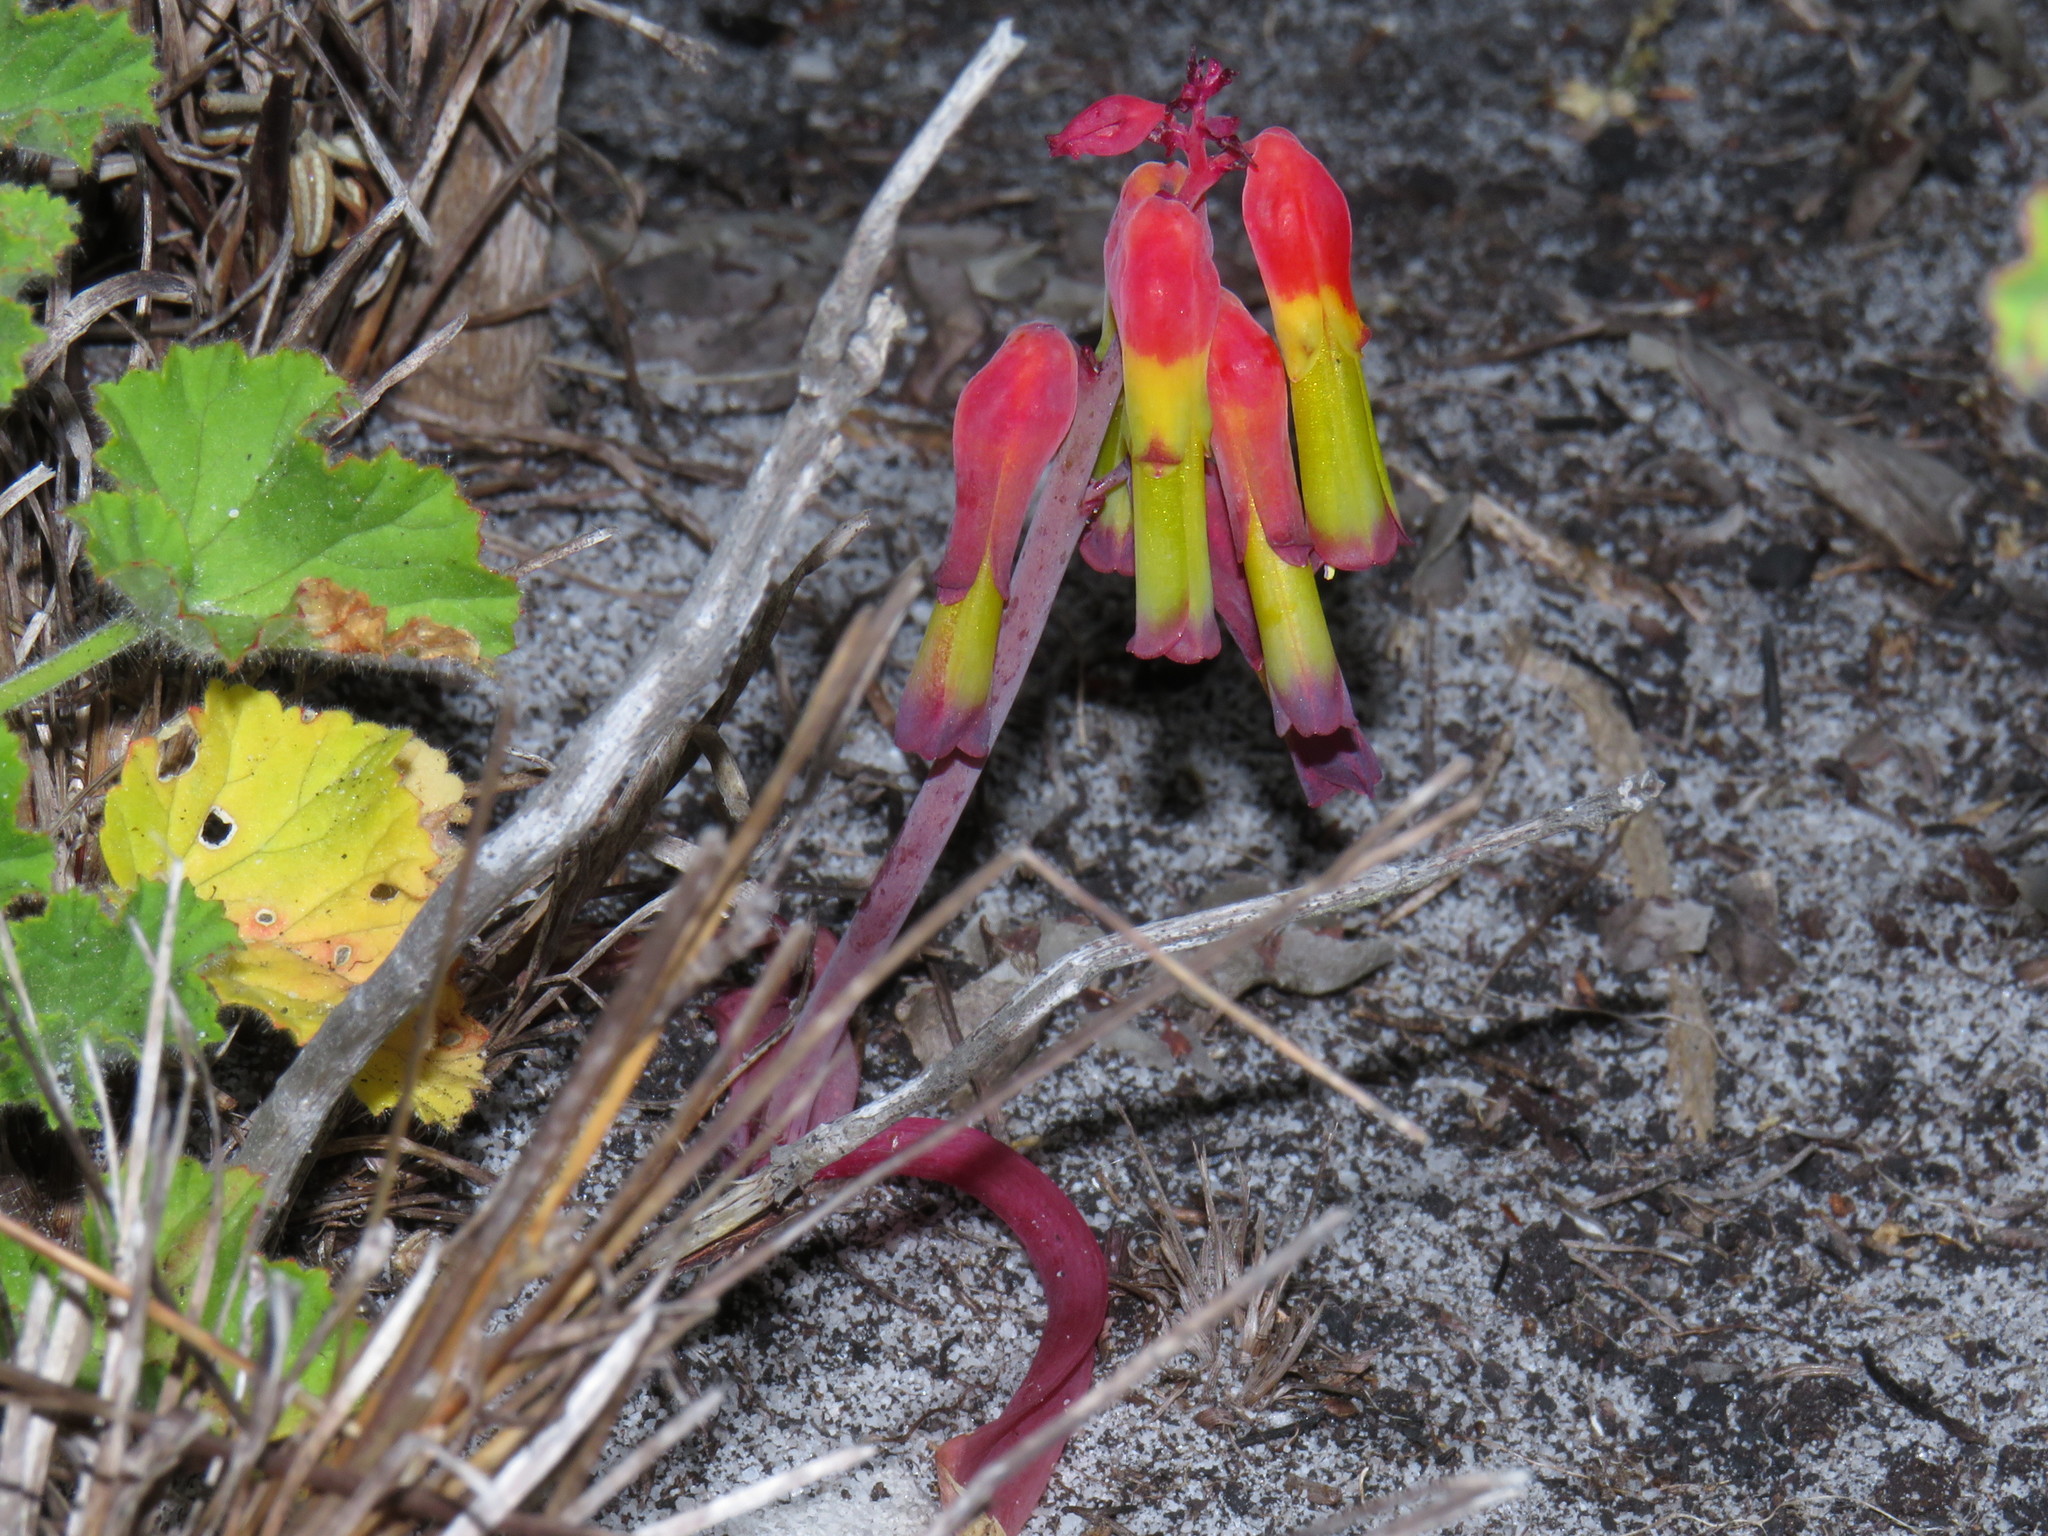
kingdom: Plantae
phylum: Tracheophyta
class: Liliopsida
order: Asparagales
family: Asparagaceae
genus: Lachenalia
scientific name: Lachenalia luteola
